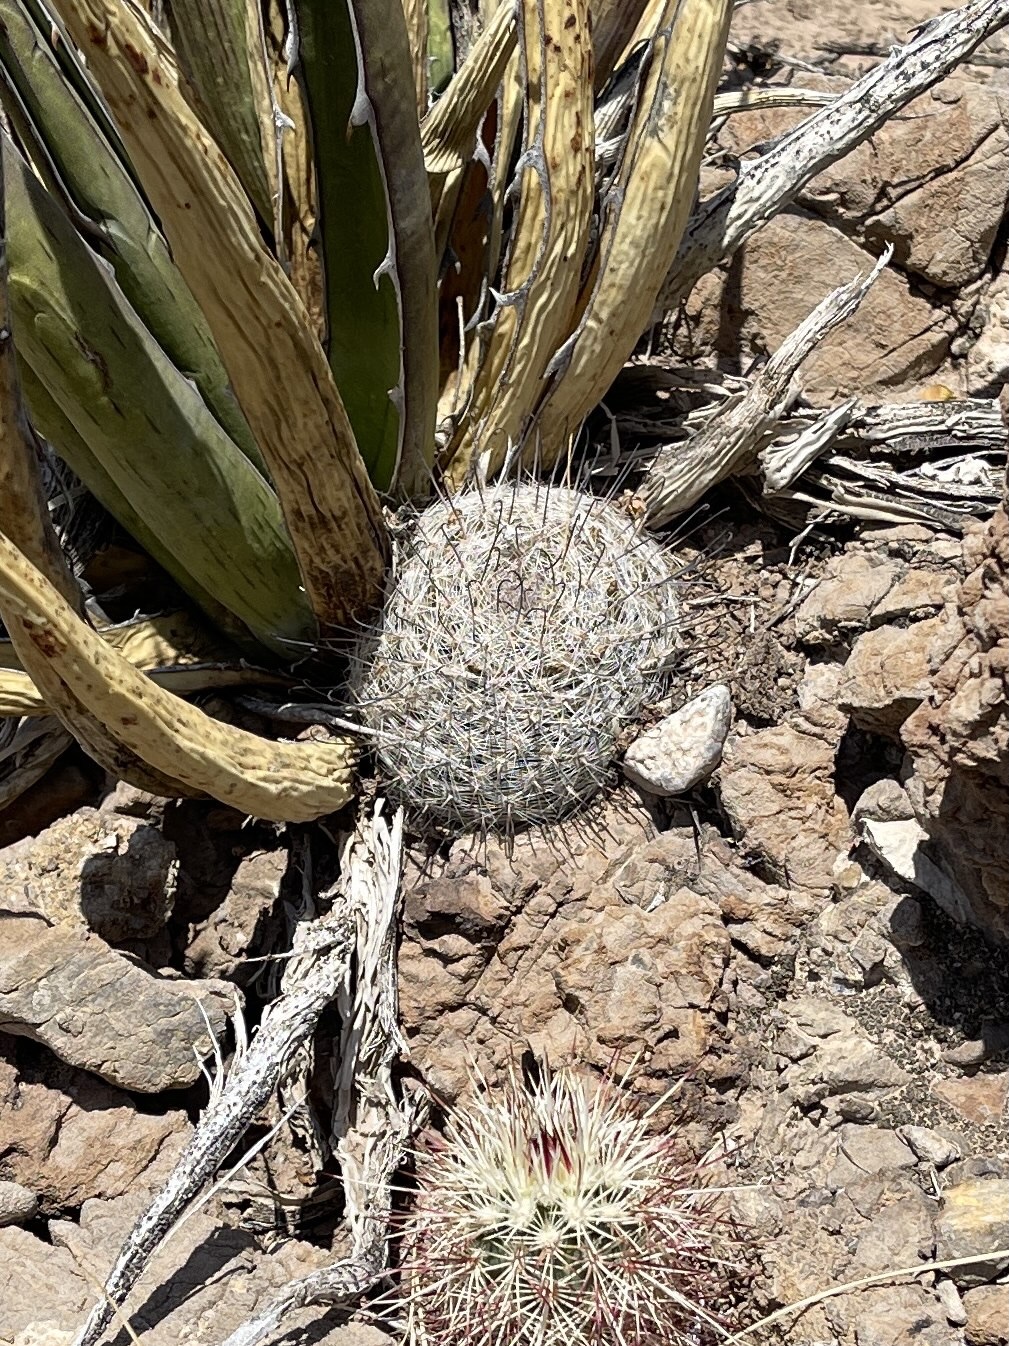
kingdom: Plantae
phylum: Tracheophyta
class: Magnoliopsida
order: Caryophyllales
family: Cactaceae
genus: Cochemiea
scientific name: Cochemiea grahamii
